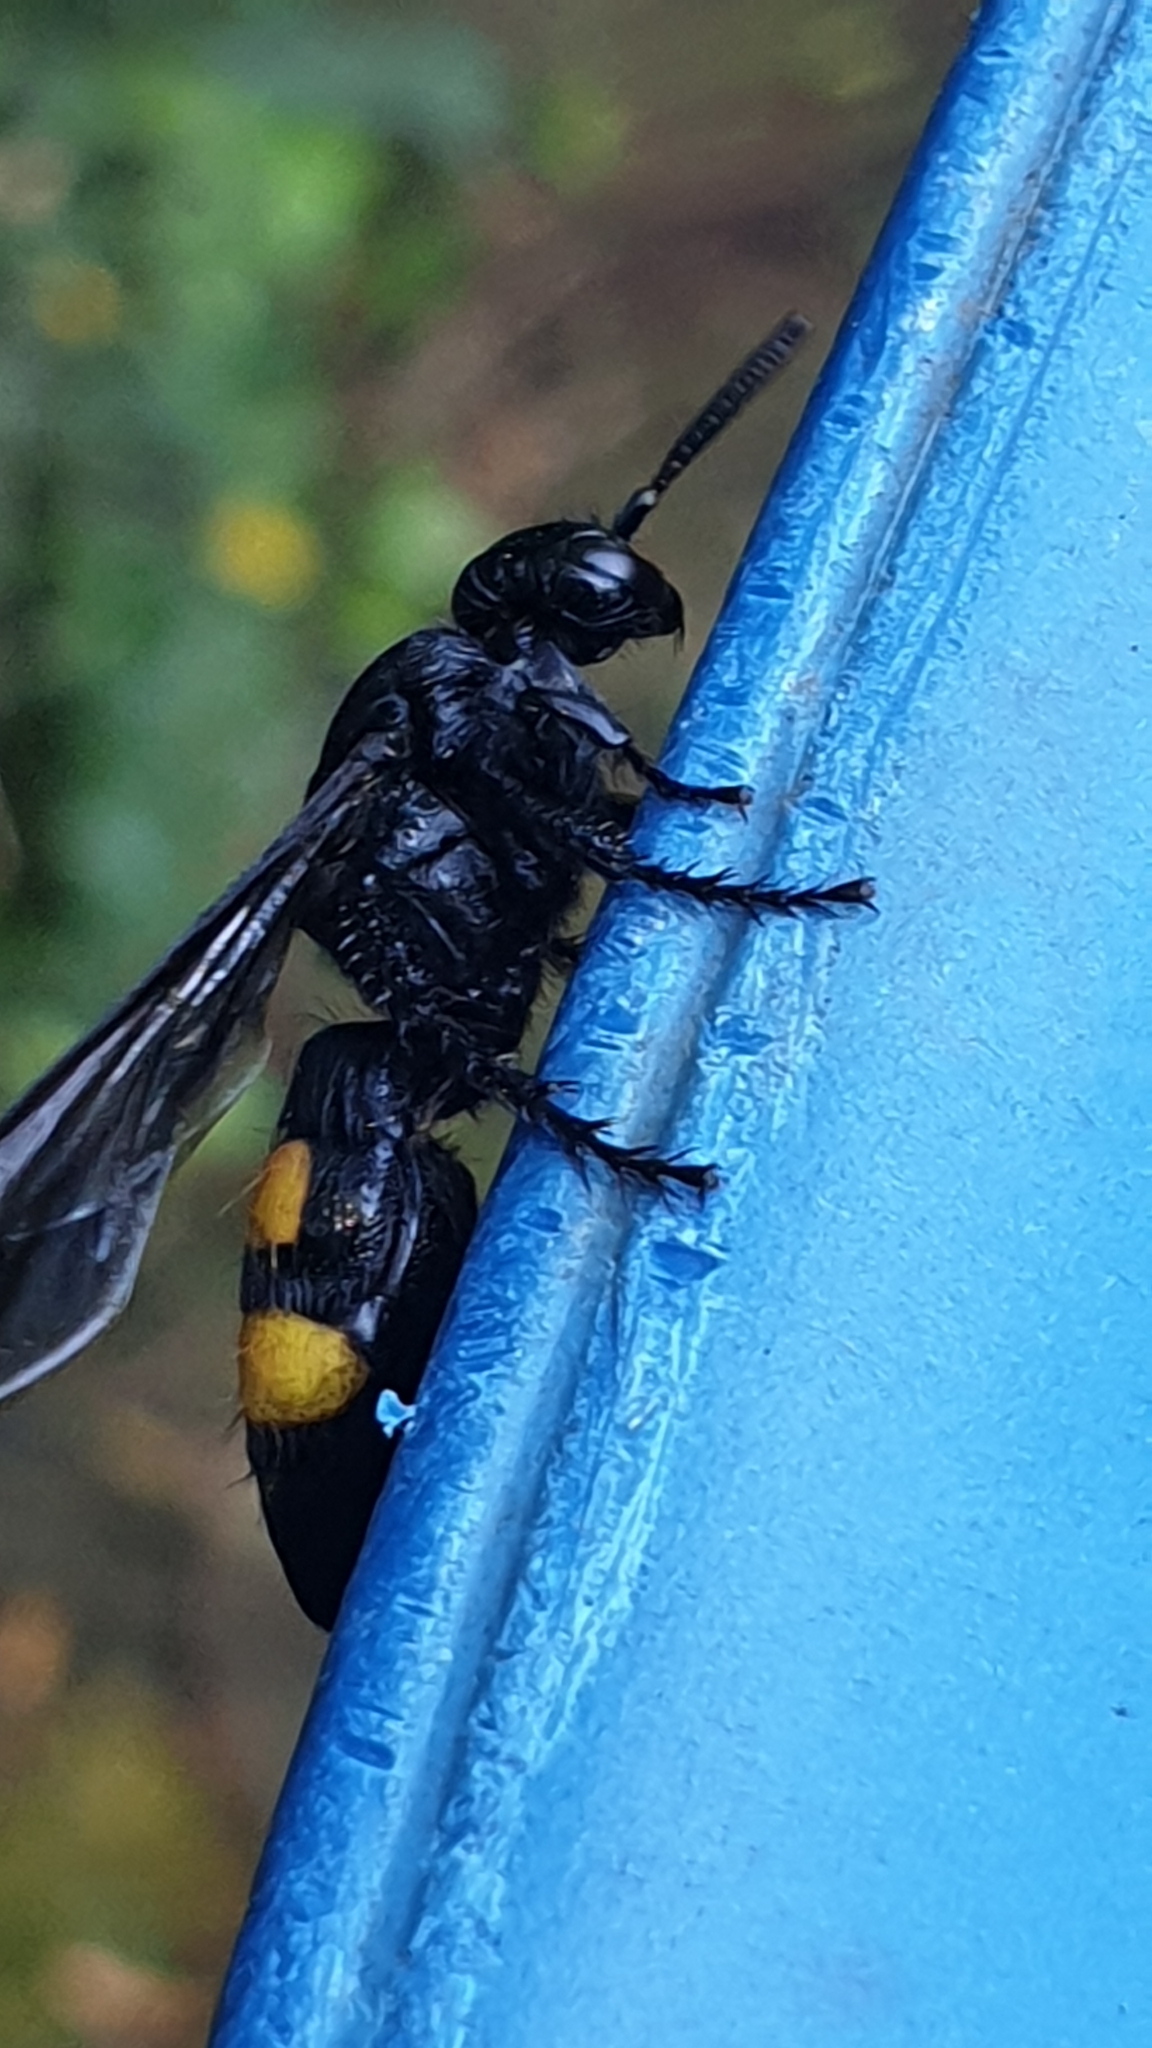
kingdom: Animalia
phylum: Arthropoda
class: Insecta
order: Hymenoptera
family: Scoliidae
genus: Scolia
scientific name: Scolia hirta
